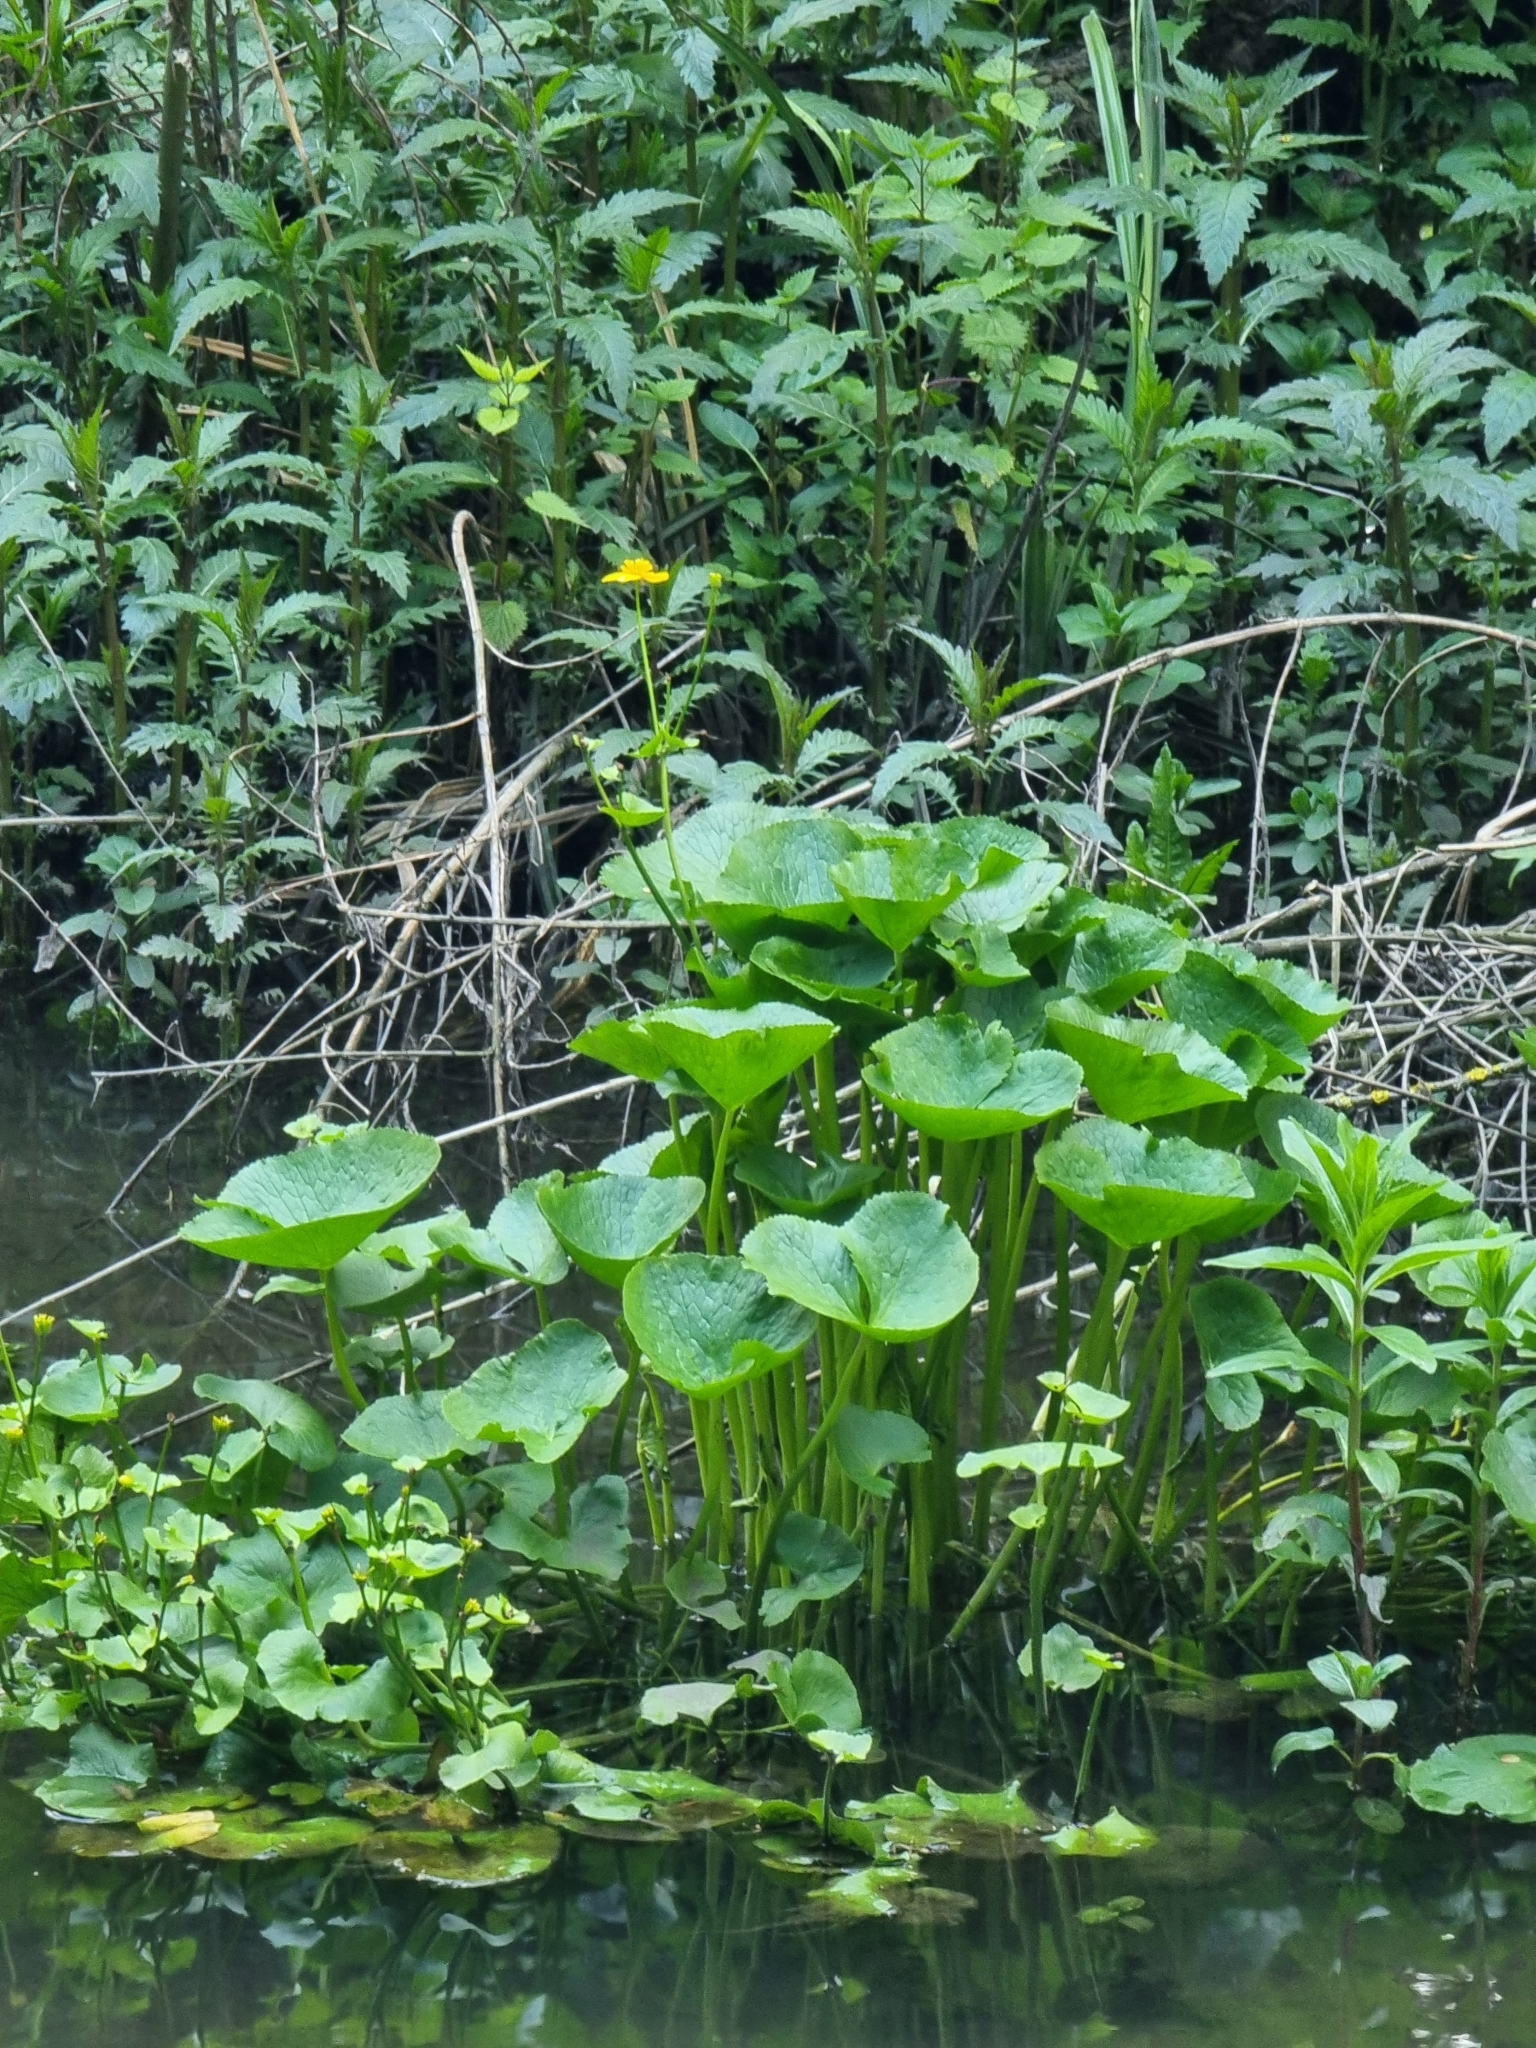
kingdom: Plantae
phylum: Tracheophyta
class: Magnoliopsida
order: Ranunculales
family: Ranunculaceae
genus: Caltha
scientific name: Caltha palustris
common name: Marsh marigold
